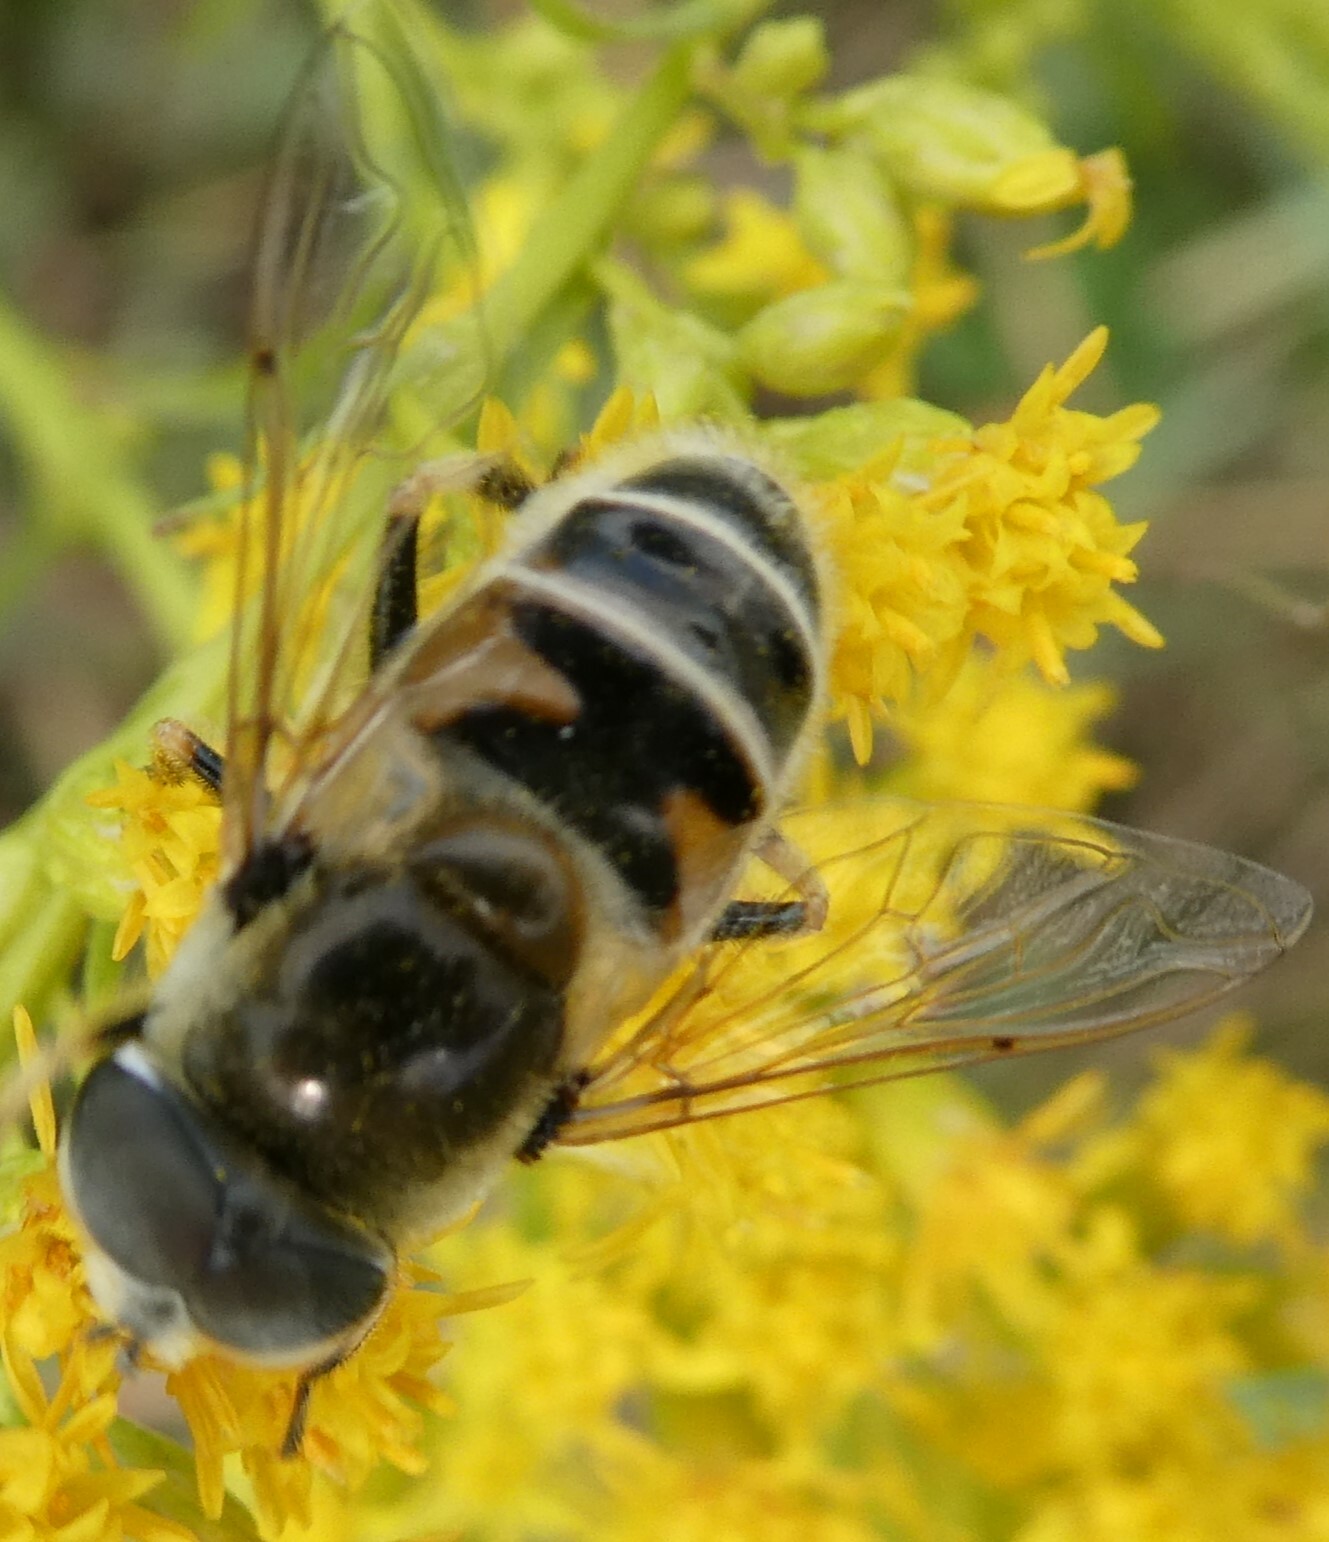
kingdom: Animalia
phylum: Arthropoda
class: Insecta
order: Diptera
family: Syrphidae
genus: Eristalis
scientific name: Eristalis stipator
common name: Yellow-shouldered drone fly
